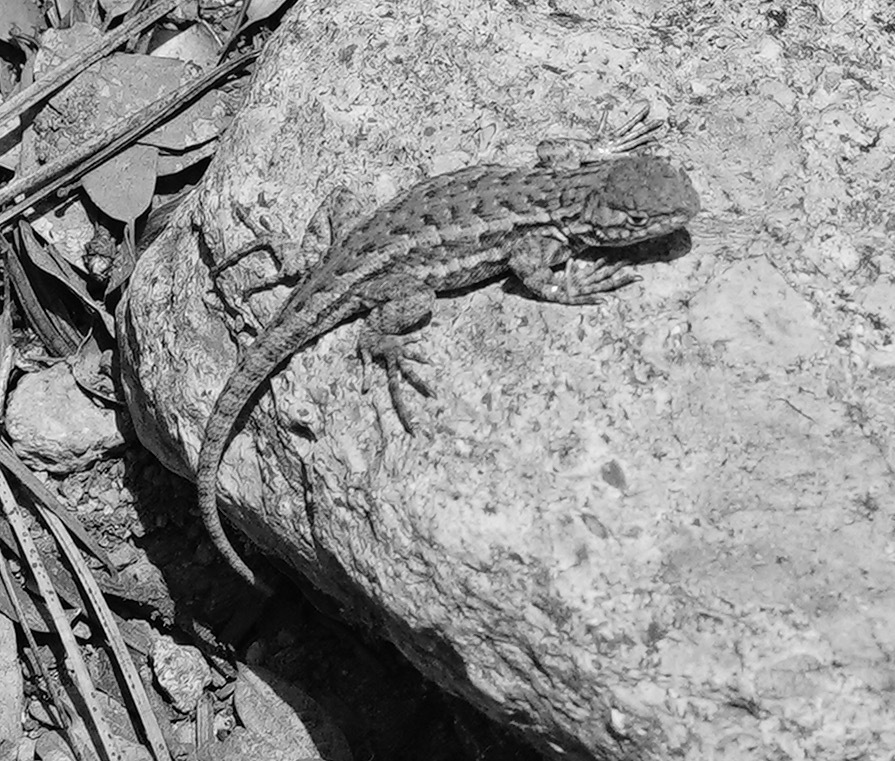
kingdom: Animalia
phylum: Chordata
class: Squamata
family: Phrynosomatidae
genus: Sceloporus
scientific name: Sceloporus graciosus
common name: Sagebrush lizard
